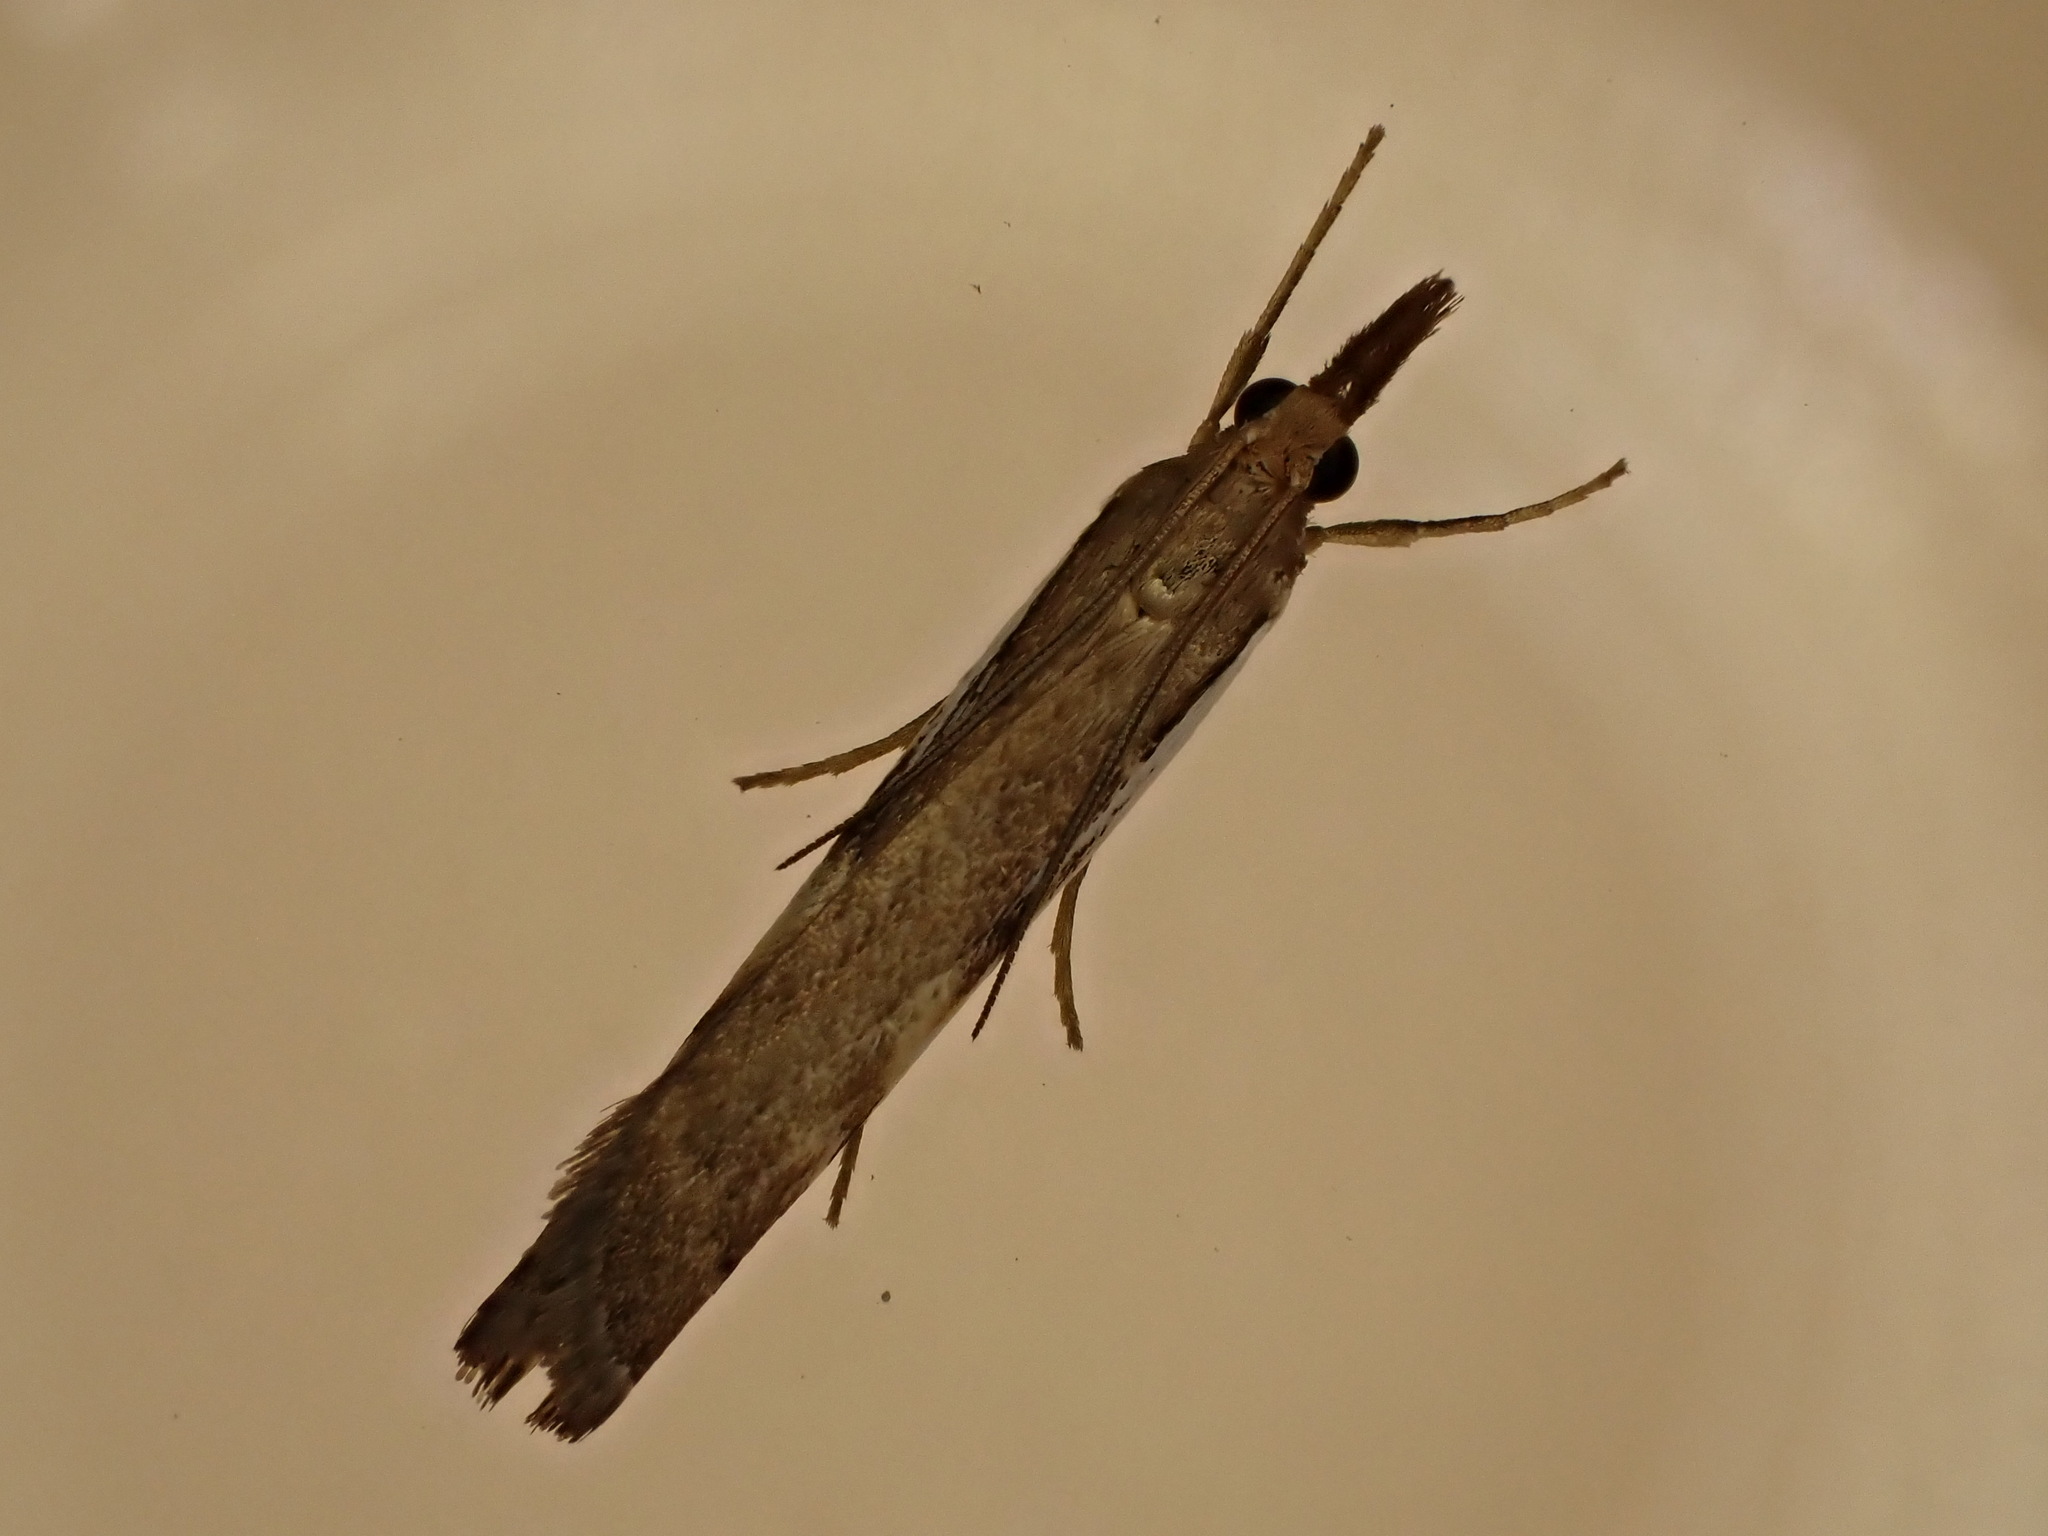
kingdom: Animalia
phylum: Arthropoda
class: Insecta
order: Lepidoptera
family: Crambidae
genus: Orocrambus
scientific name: Orocrambus flexuosellus
